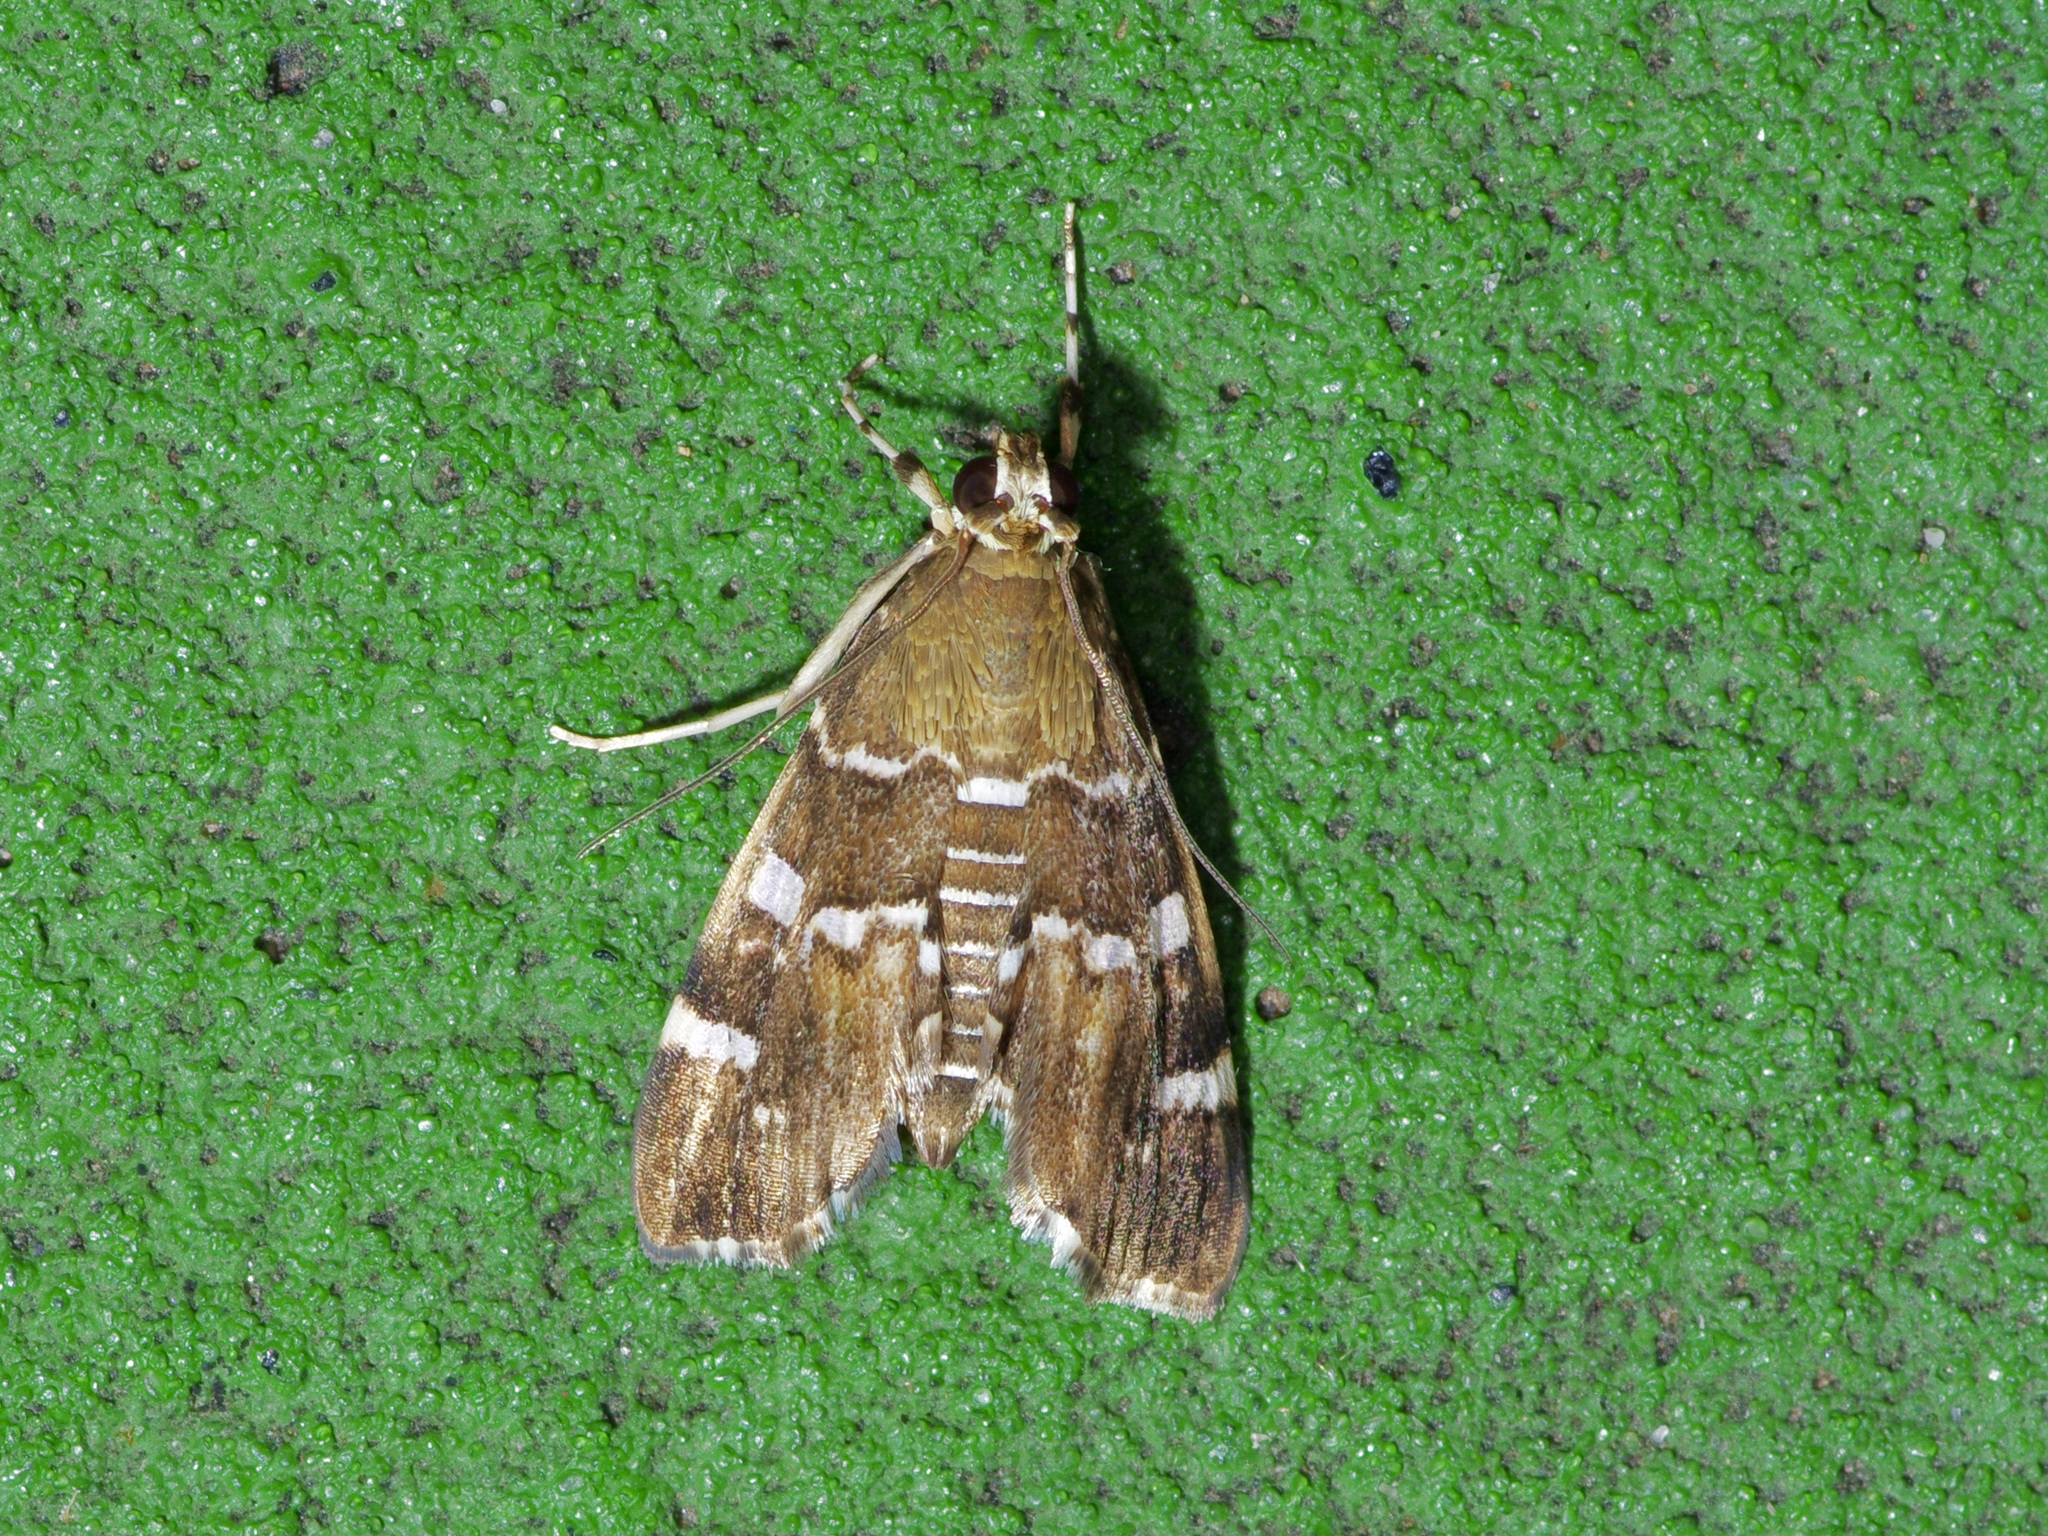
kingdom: Animalia
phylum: Arthropoda
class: Insecta
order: Lepidoptera
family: Crambidae
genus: Hymenia
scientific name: Hymenia perspectalis
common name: Spotted beet webworm
